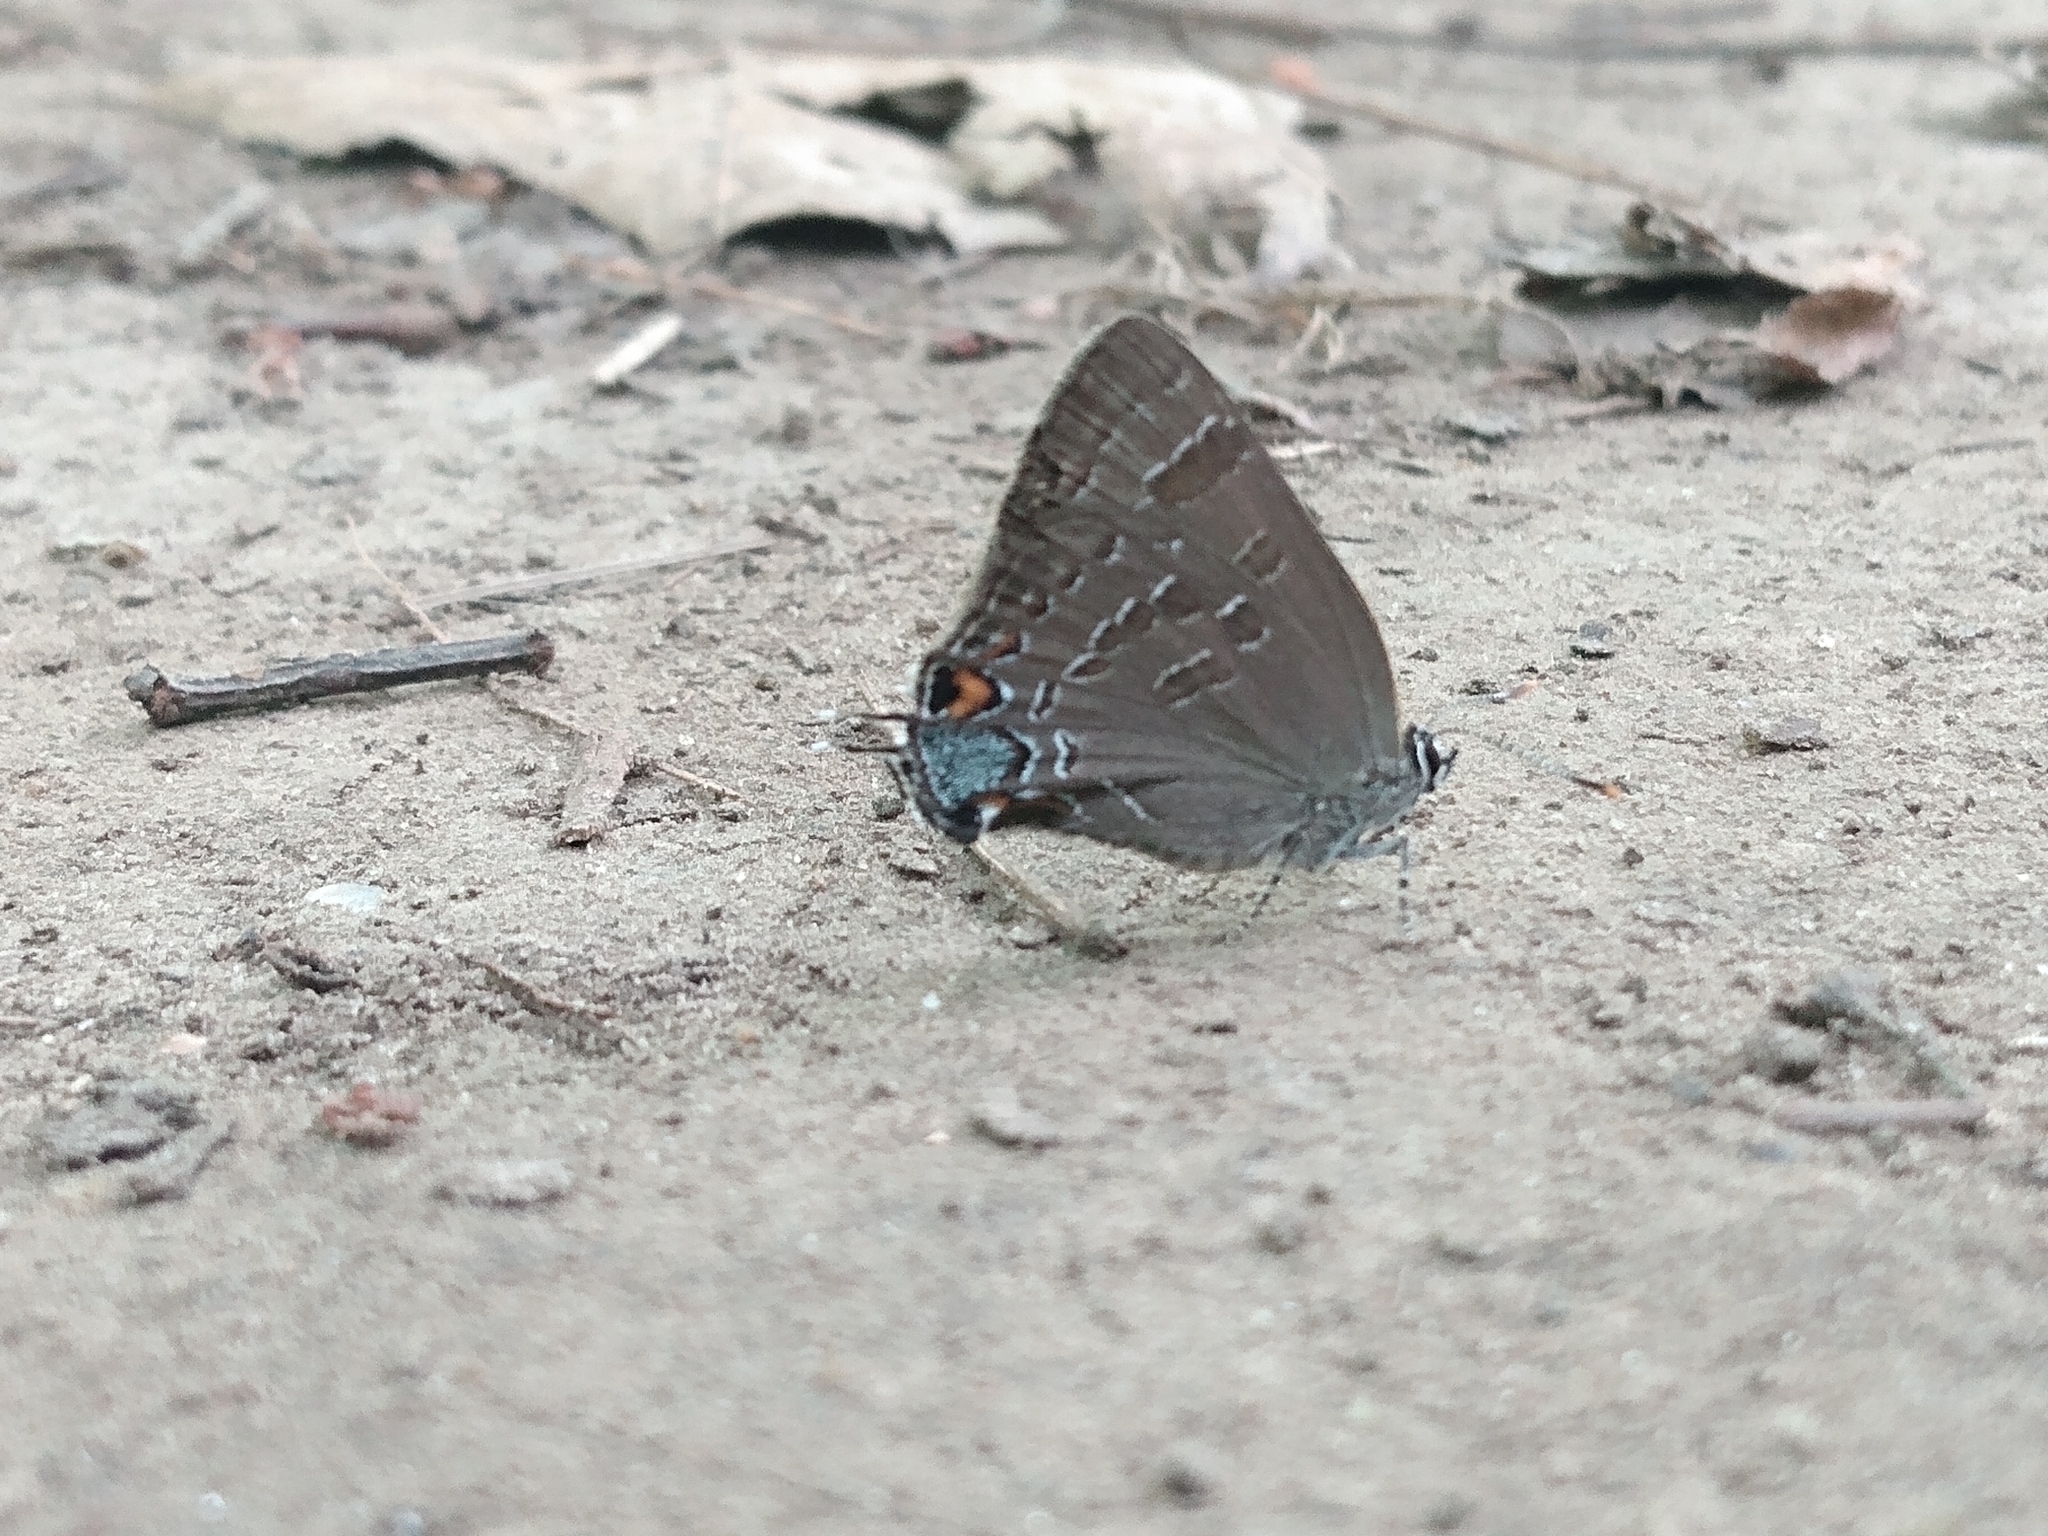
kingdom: Animalia
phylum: Arthropoda
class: Insecta
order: Lepidoptera
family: Lycaenidae
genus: Strymon
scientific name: Strymon caryaevorus
